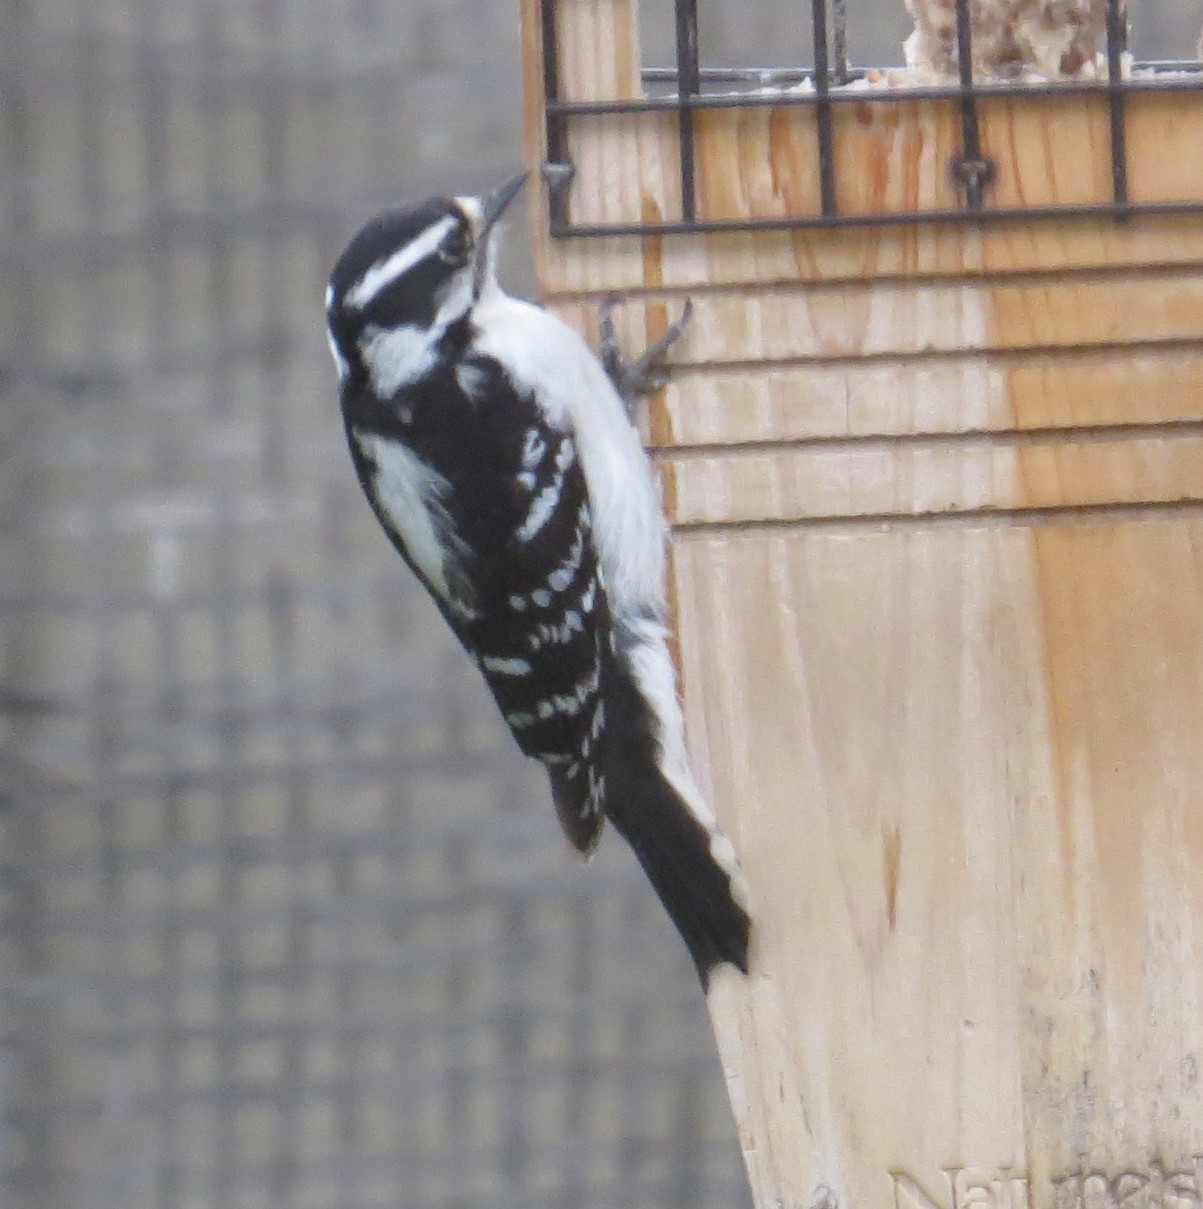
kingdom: Animalia
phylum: Chordata
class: Aves
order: Piciformes
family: Picidae
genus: Dryobates
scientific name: Dryobates pubescens
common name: Downy woodpecker
